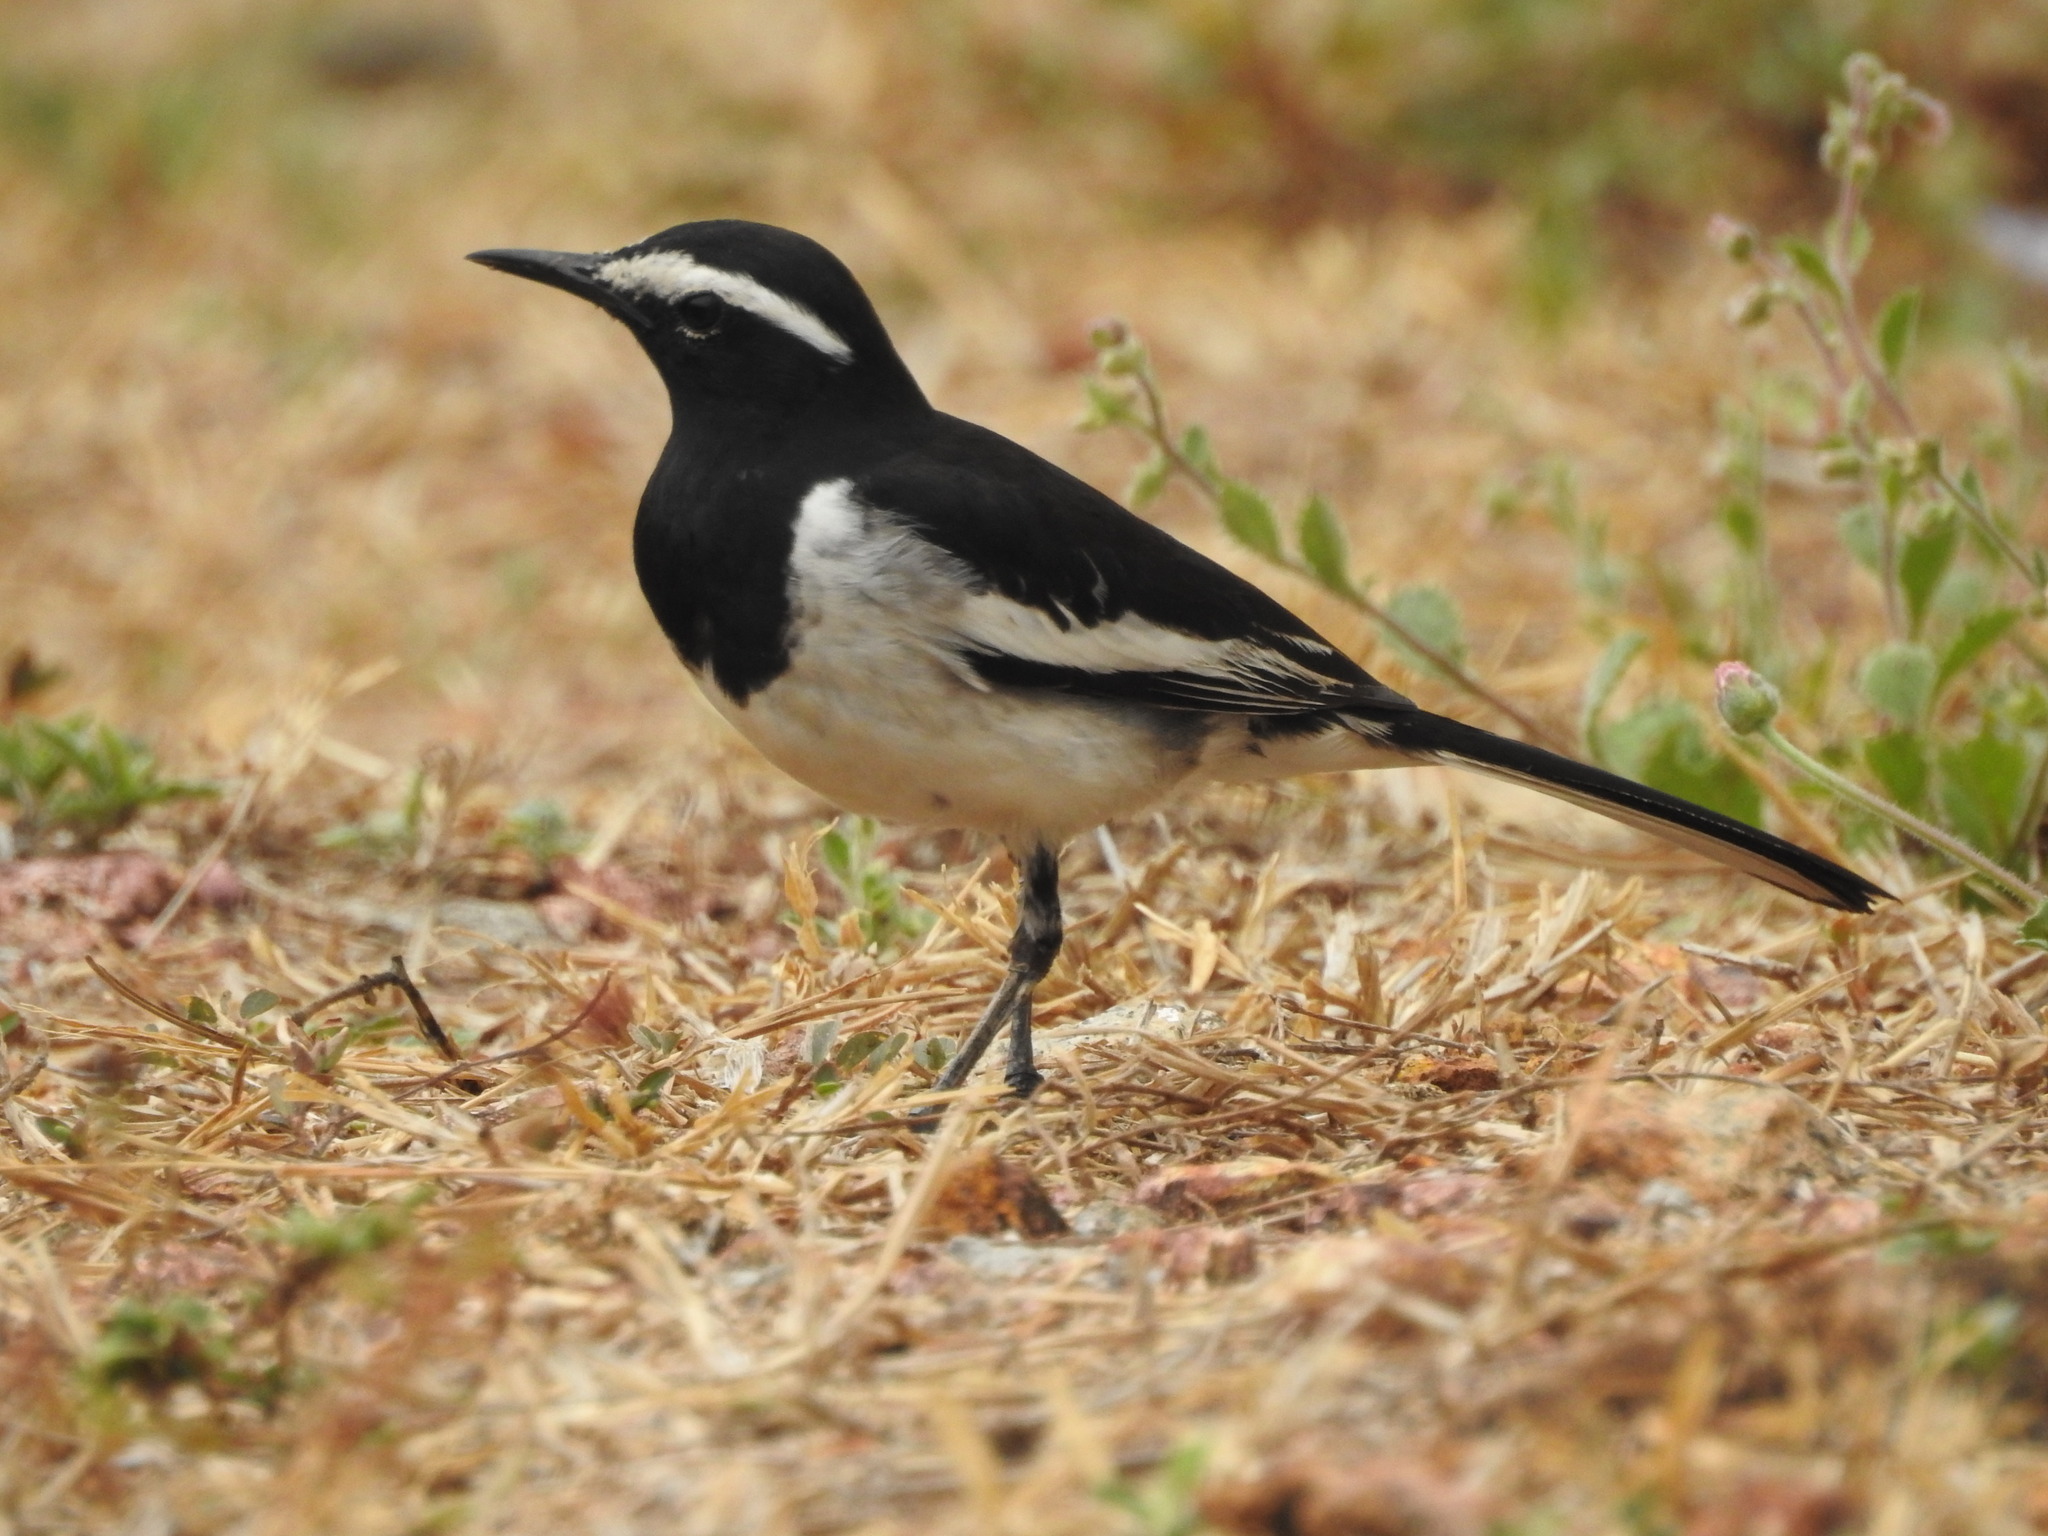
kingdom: Animalia
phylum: Chordata
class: Aves
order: Passeriformes
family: Motacillidae
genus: Motacilla
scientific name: Motacilla maderaspatensis
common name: White-browed wagtail
